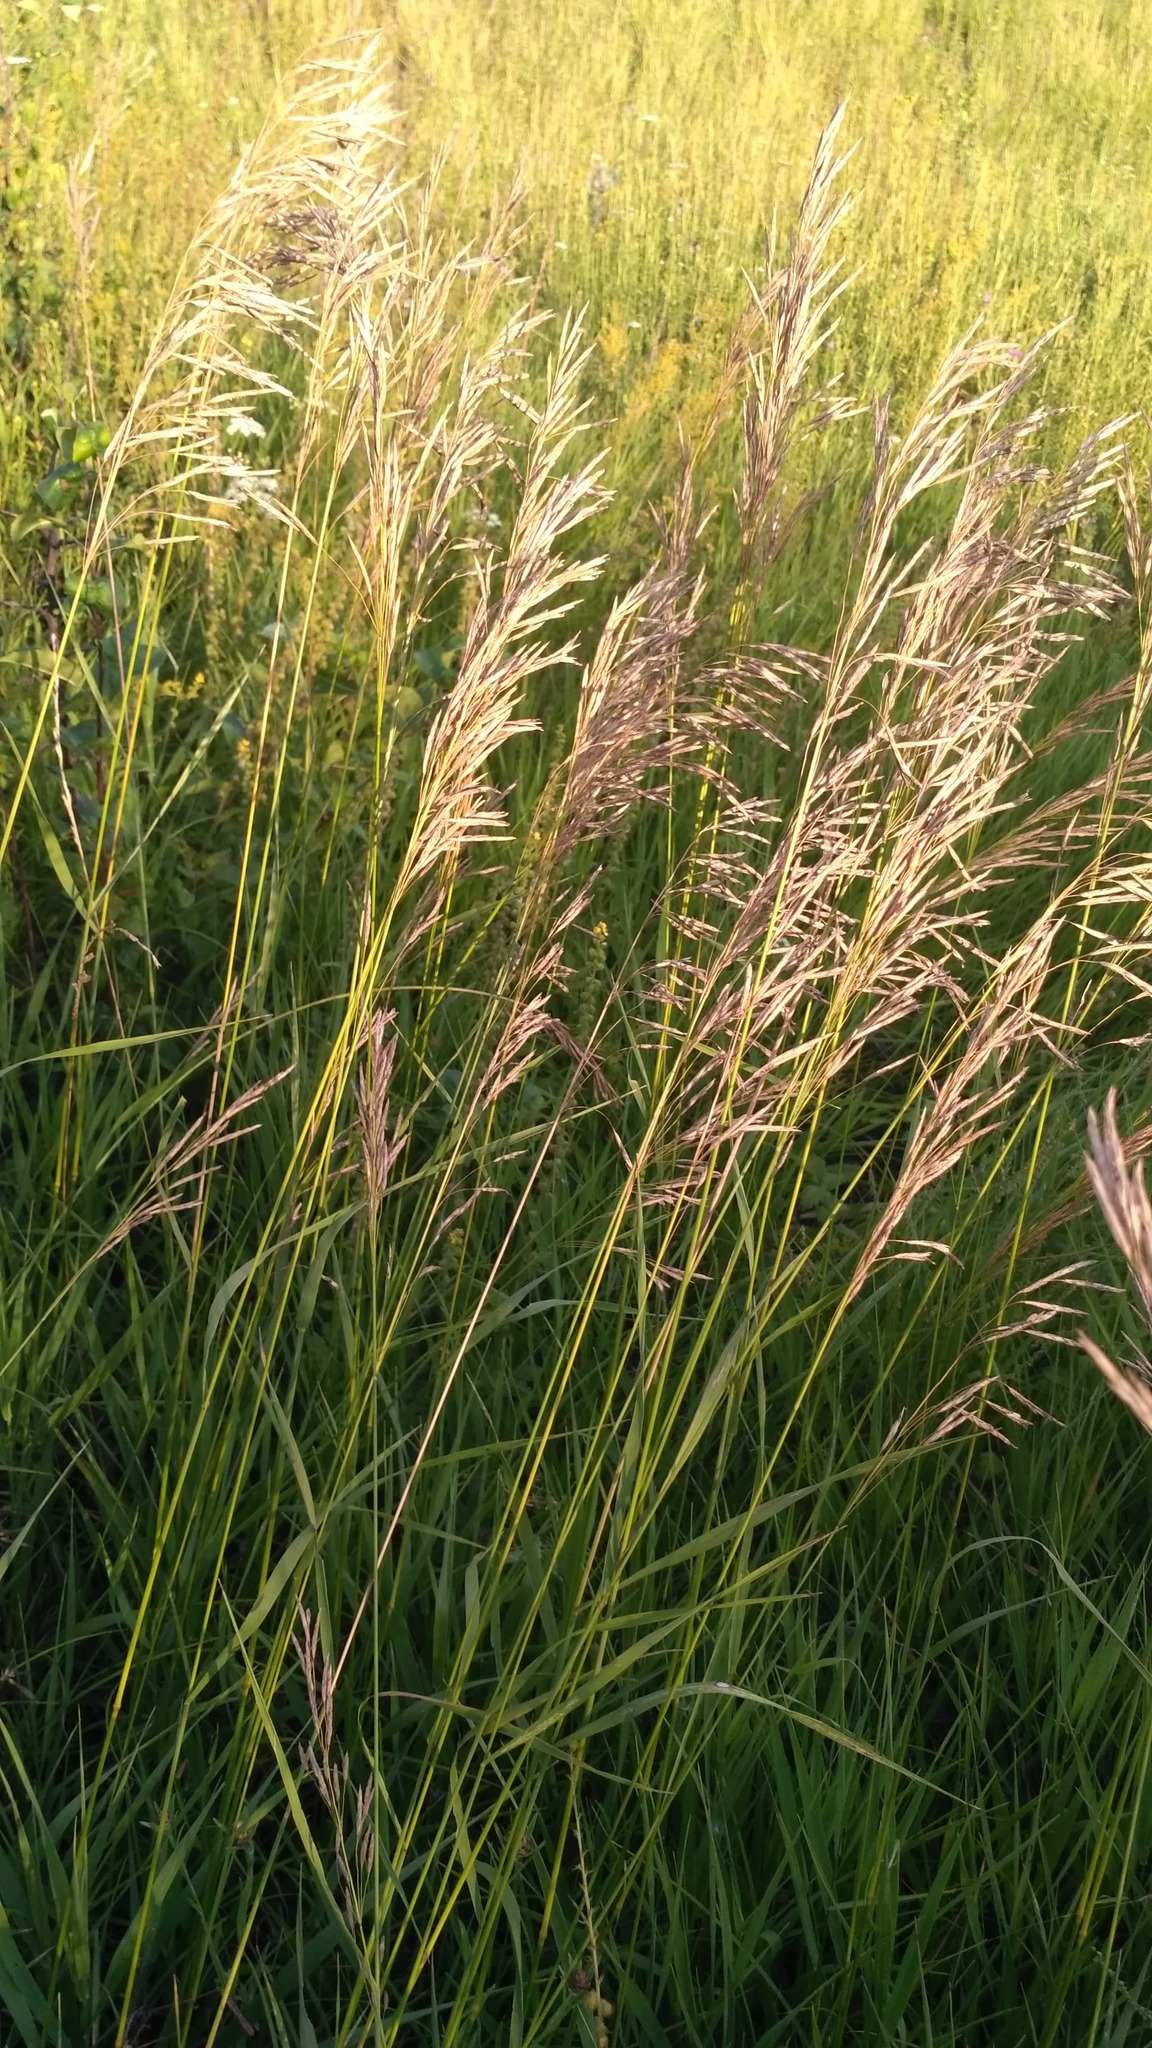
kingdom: Plantae
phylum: Tracheophyta
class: Liliopsida
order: Poales
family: Poaceae
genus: Bromus
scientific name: Bromus inermis
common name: Smooth brome
